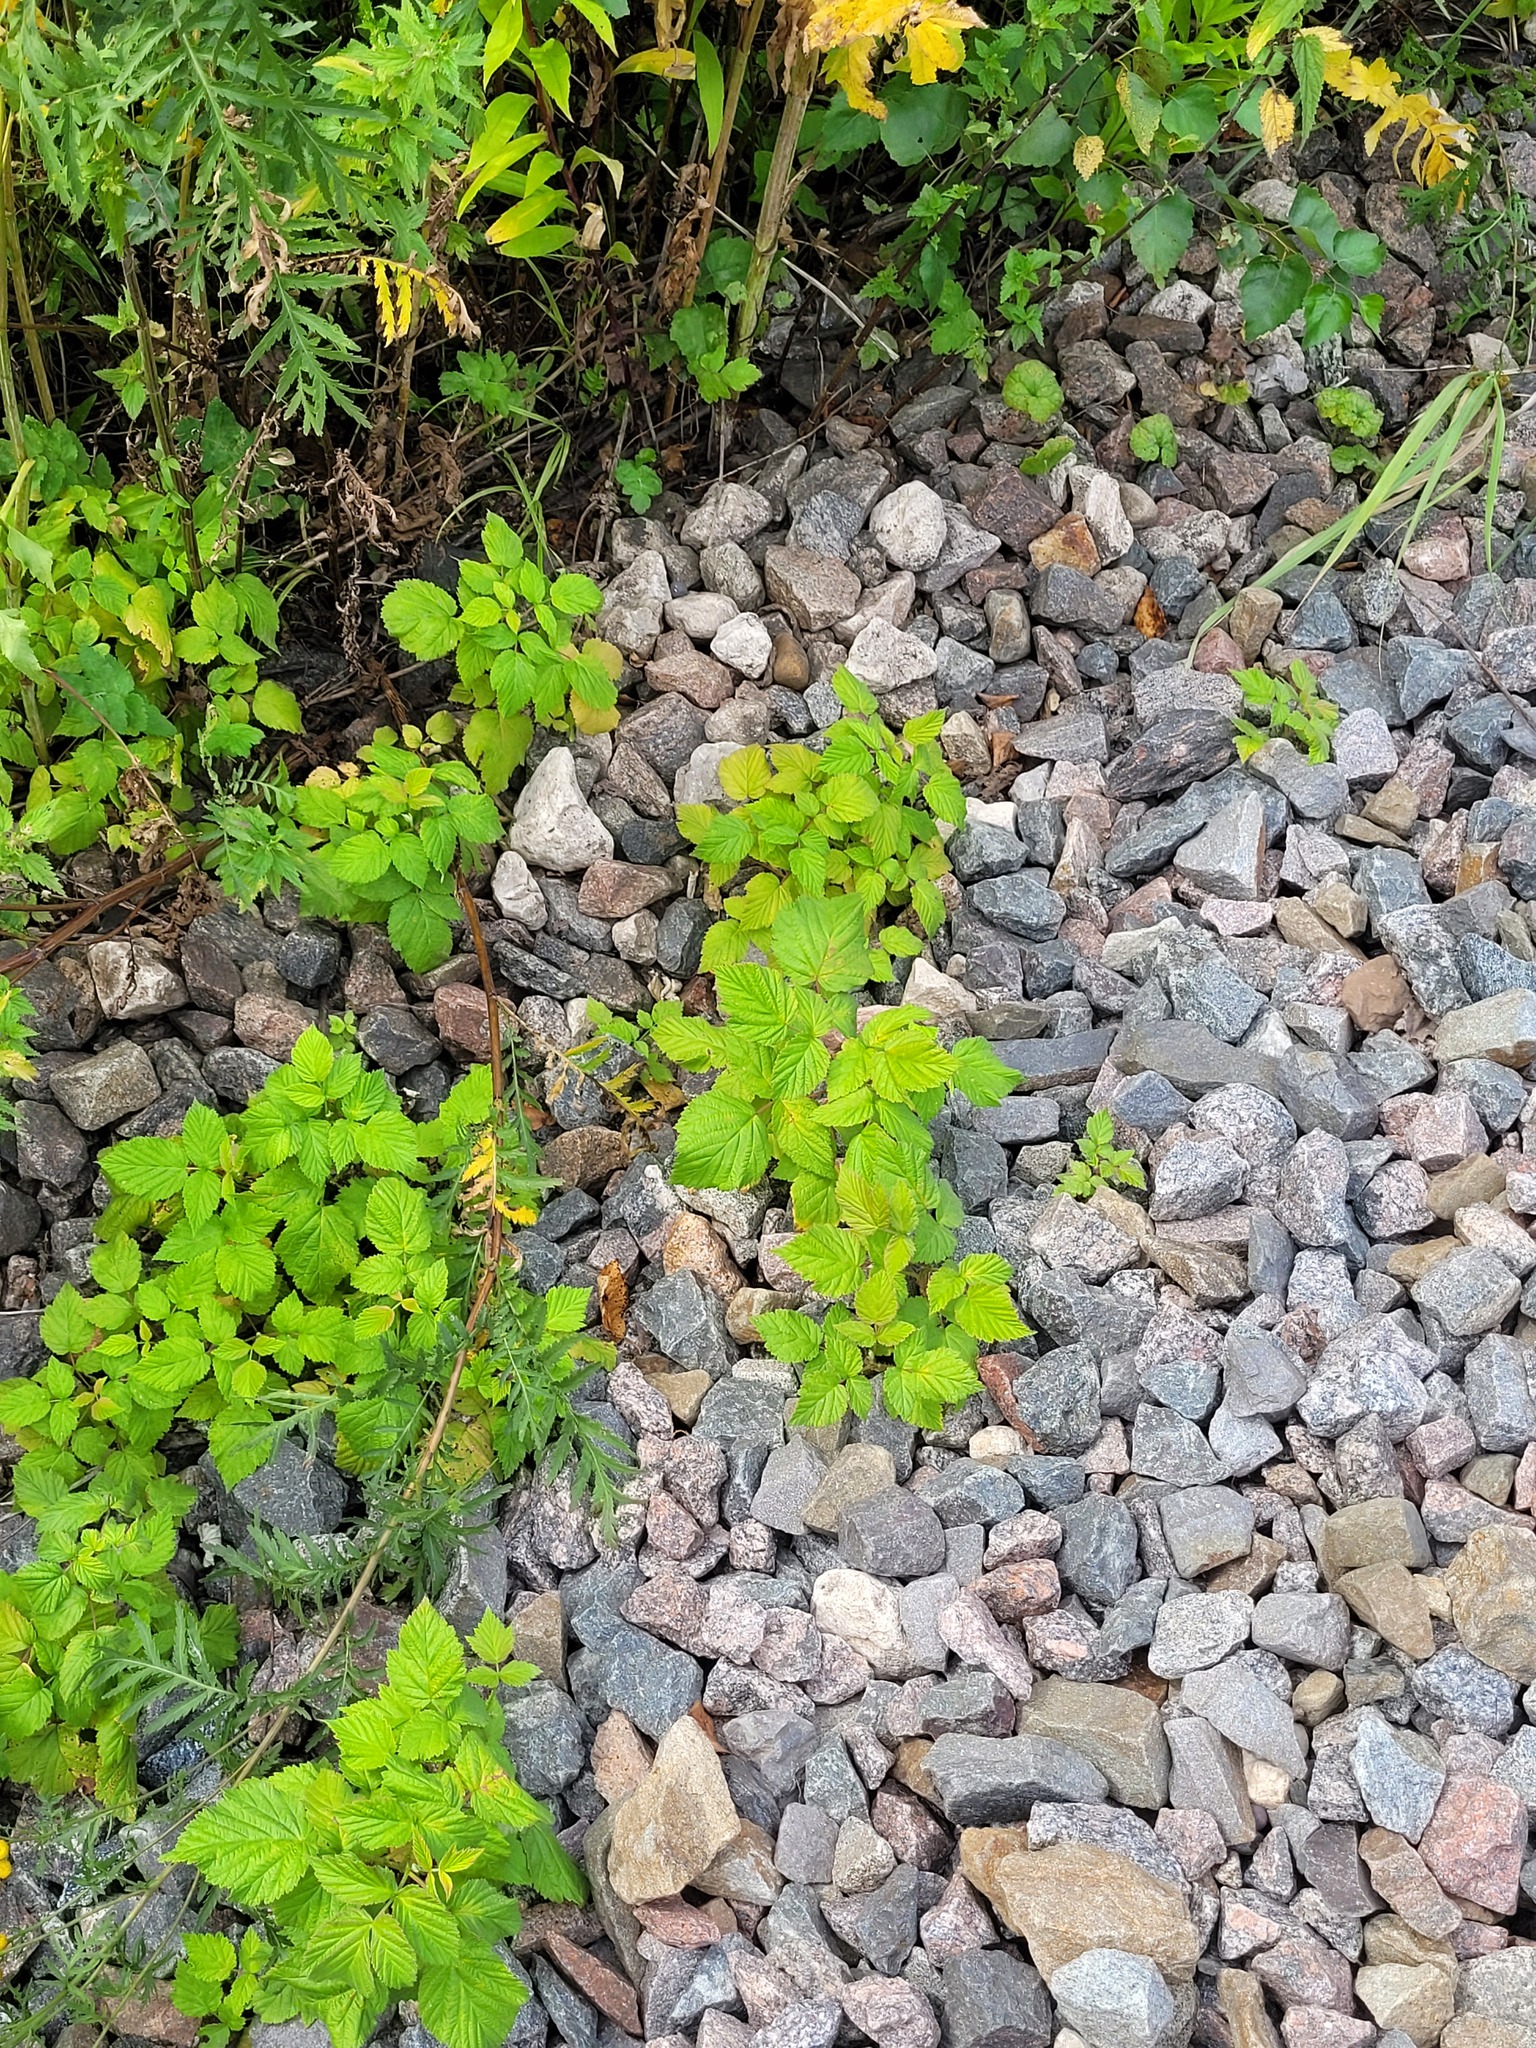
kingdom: Plantae
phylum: Tracheophyta
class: Magnoliopsida
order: Rosales
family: Rosaceae
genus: Rubus
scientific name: Rubus idaeus
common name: Raspberry
